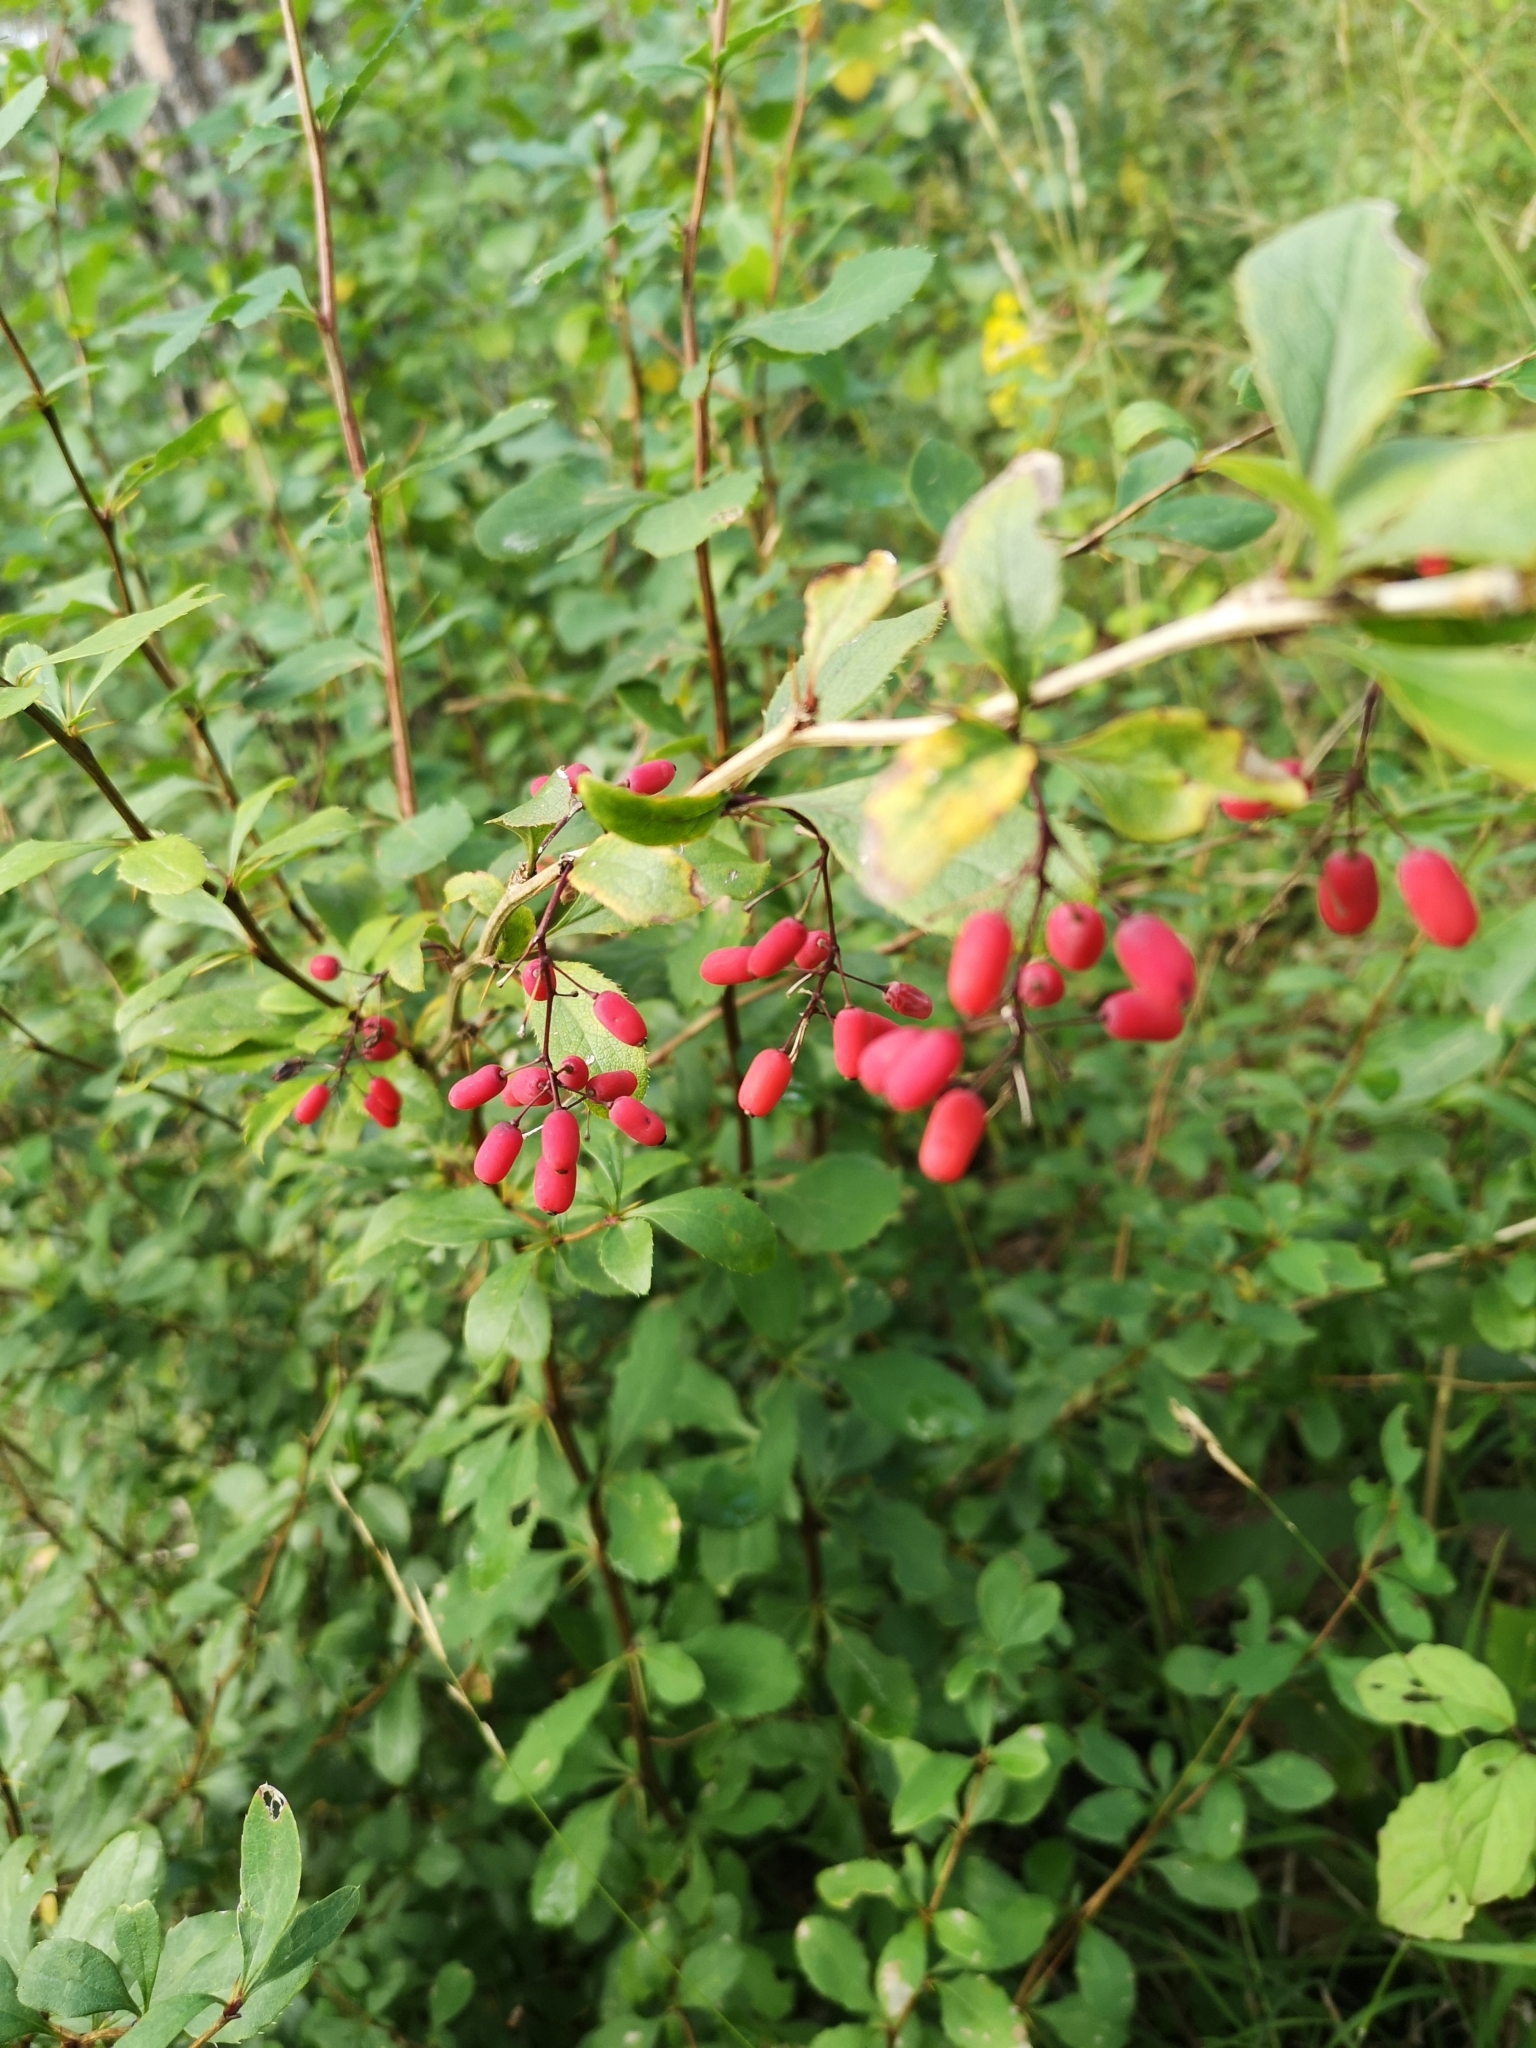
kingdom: Plantae
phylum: Tracheophyta
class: Magnoliopsida
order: Ranunculales
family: Berberidaceae
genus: Berberis
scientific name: Berberis vulgaris
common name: Barberry
